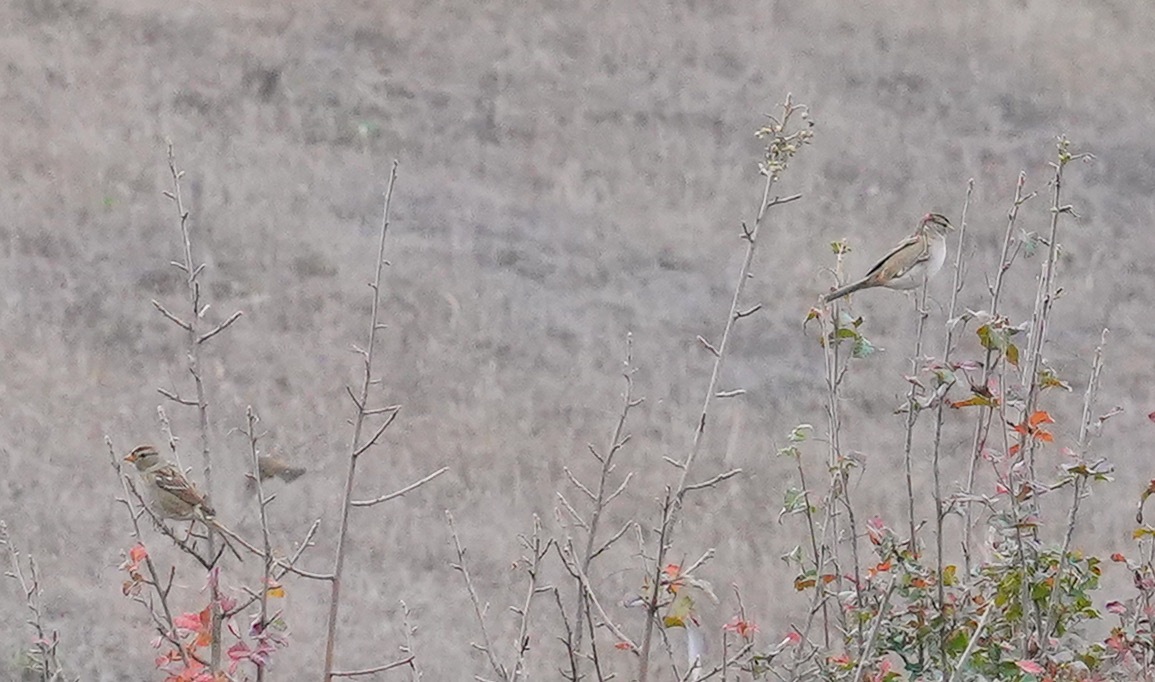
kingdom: Animalia
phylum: Chordata
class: Aves
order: Passeriformes
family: Passerellidae
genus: Zonotrichia
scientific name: Zonotrichia leucophrys
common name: White-crowned sparrow
